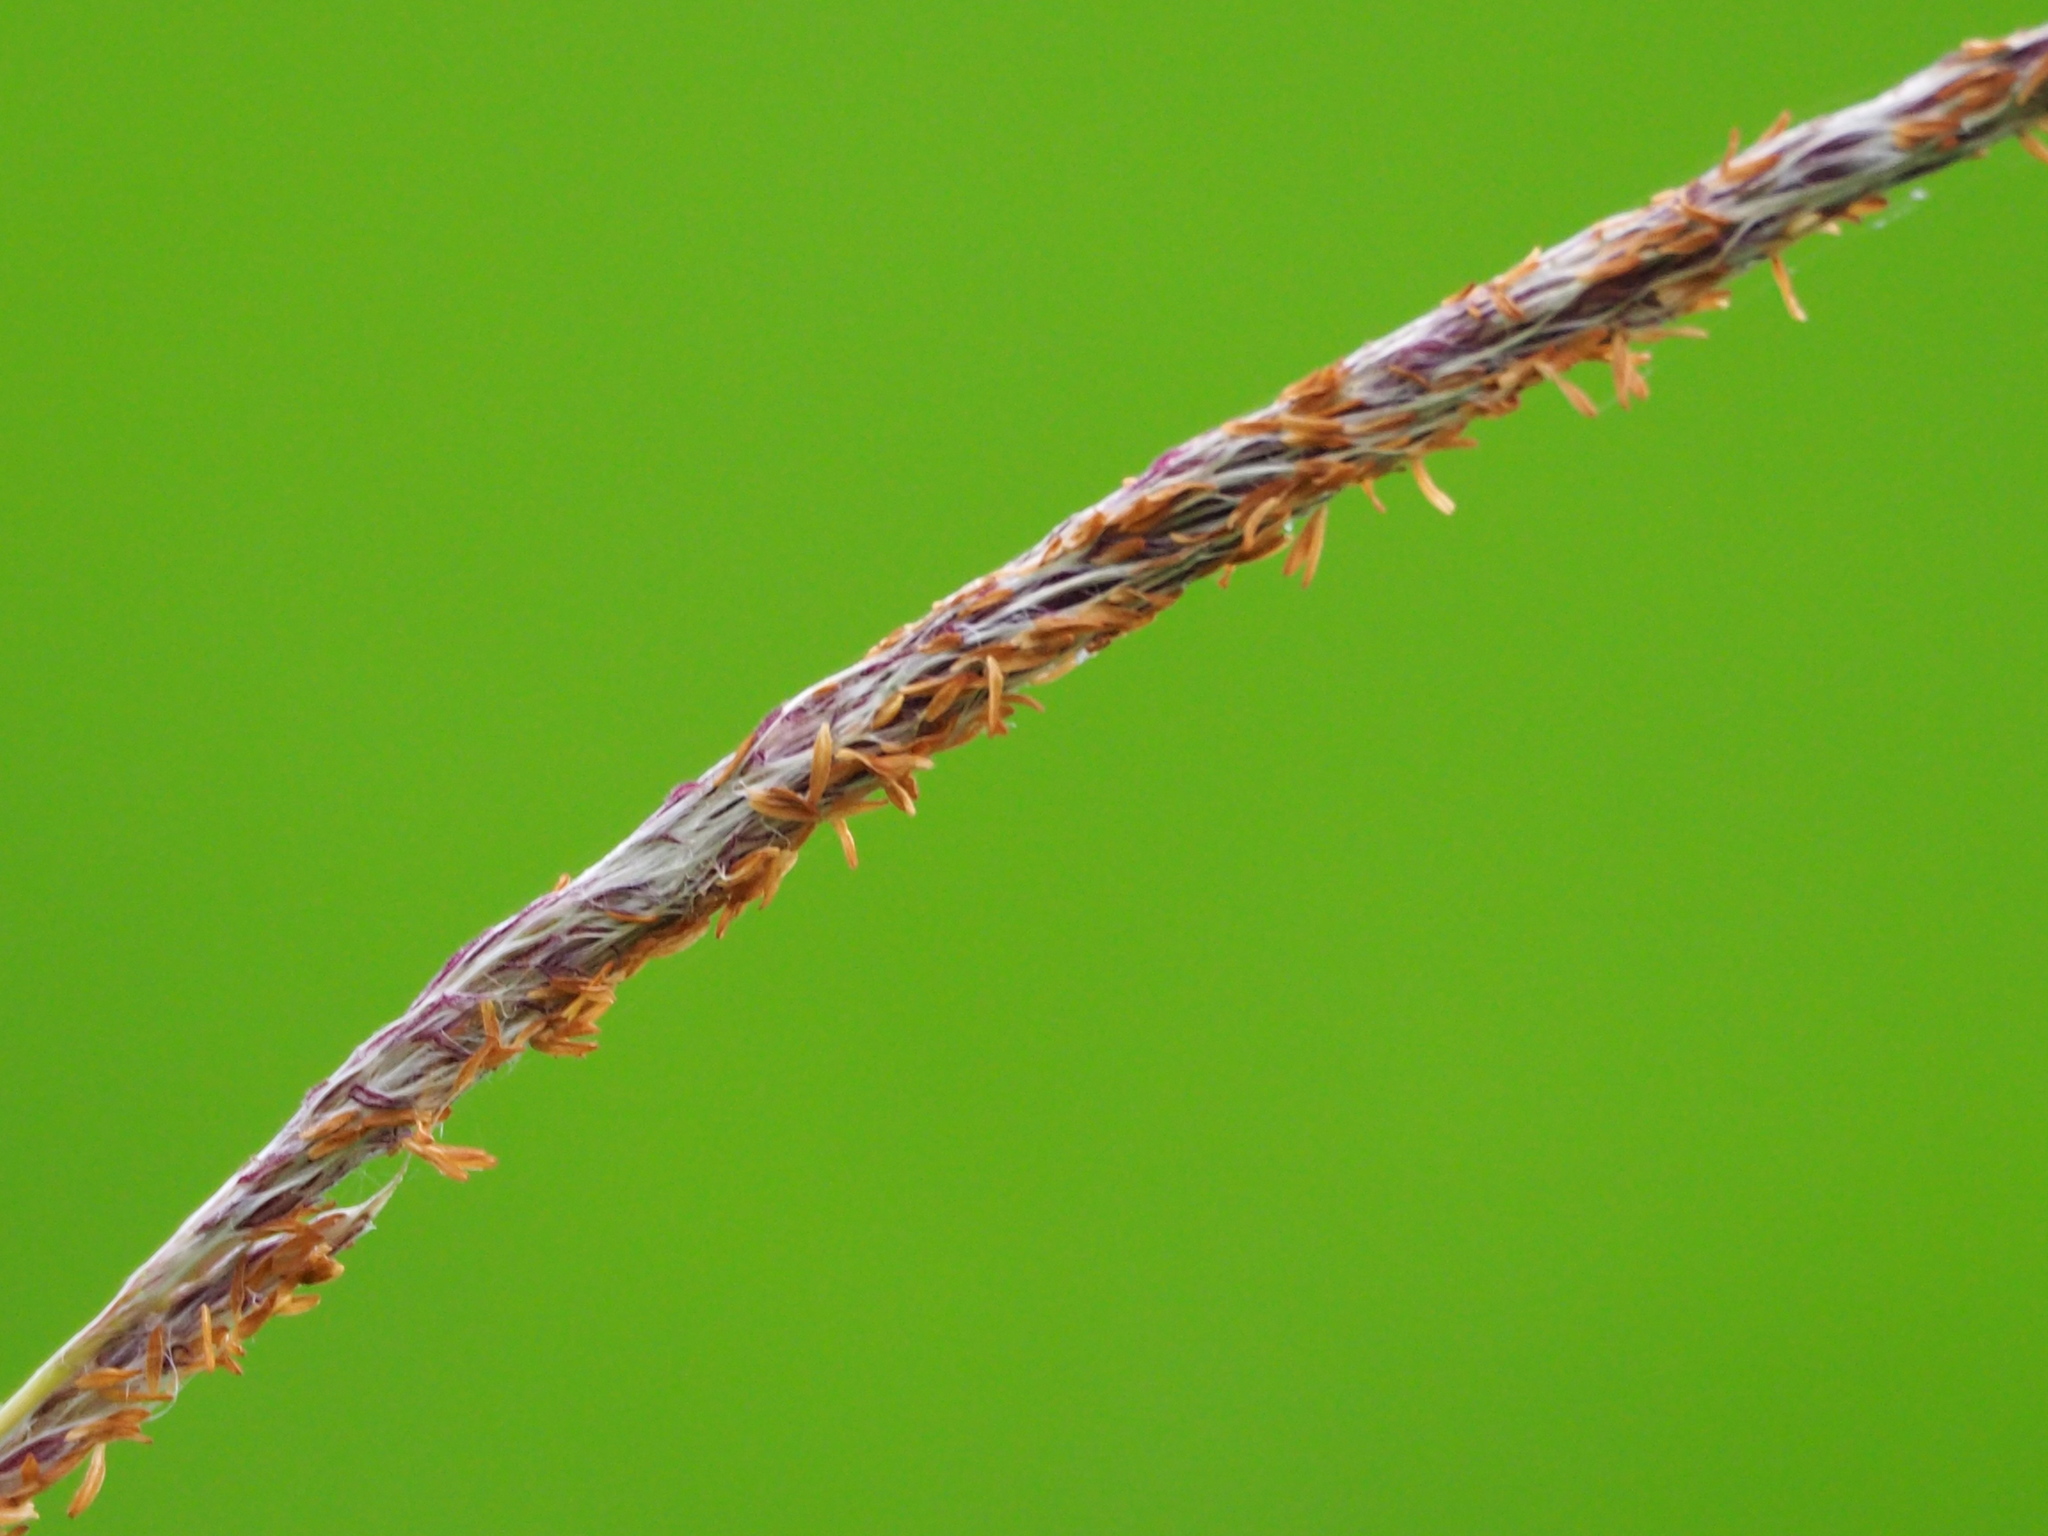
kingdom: Plantae
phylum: Tracheophyta
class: Liliopsida
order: Poales
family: Poaceae
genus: Imperata
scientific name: Imperata cylindrica
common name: Cogongrass
